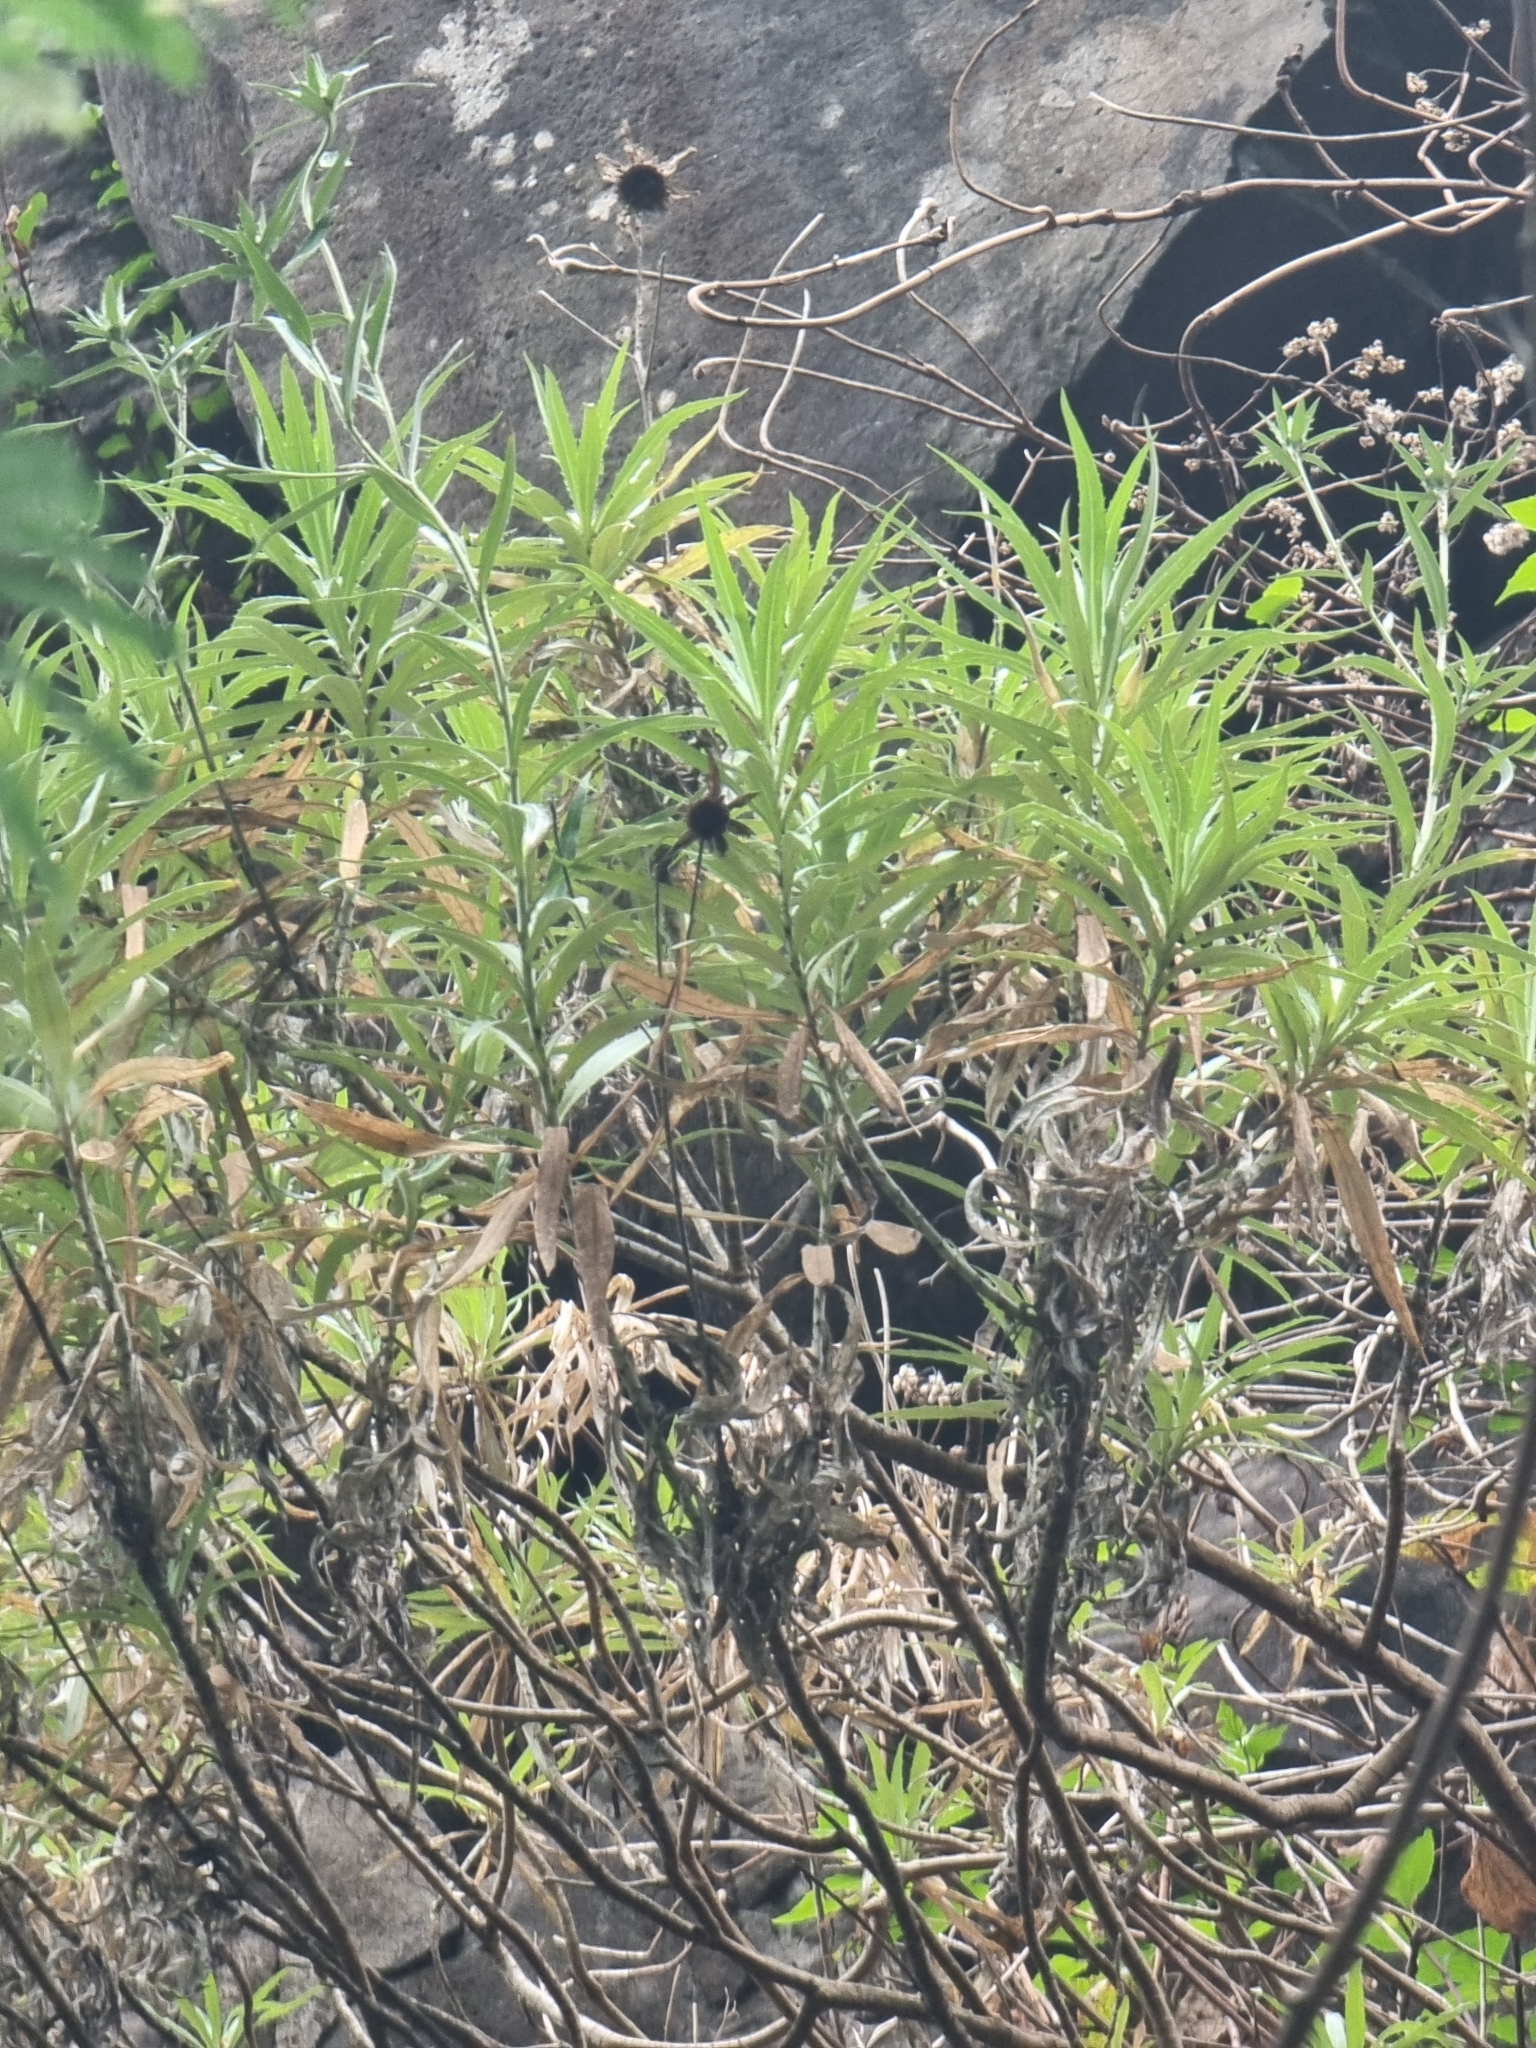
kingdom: Plantae
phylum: Tracheophyta
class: Magnoliopsida
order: Asterales
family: Asteraceae
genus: Carlina
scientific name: Carlina salicifolia
